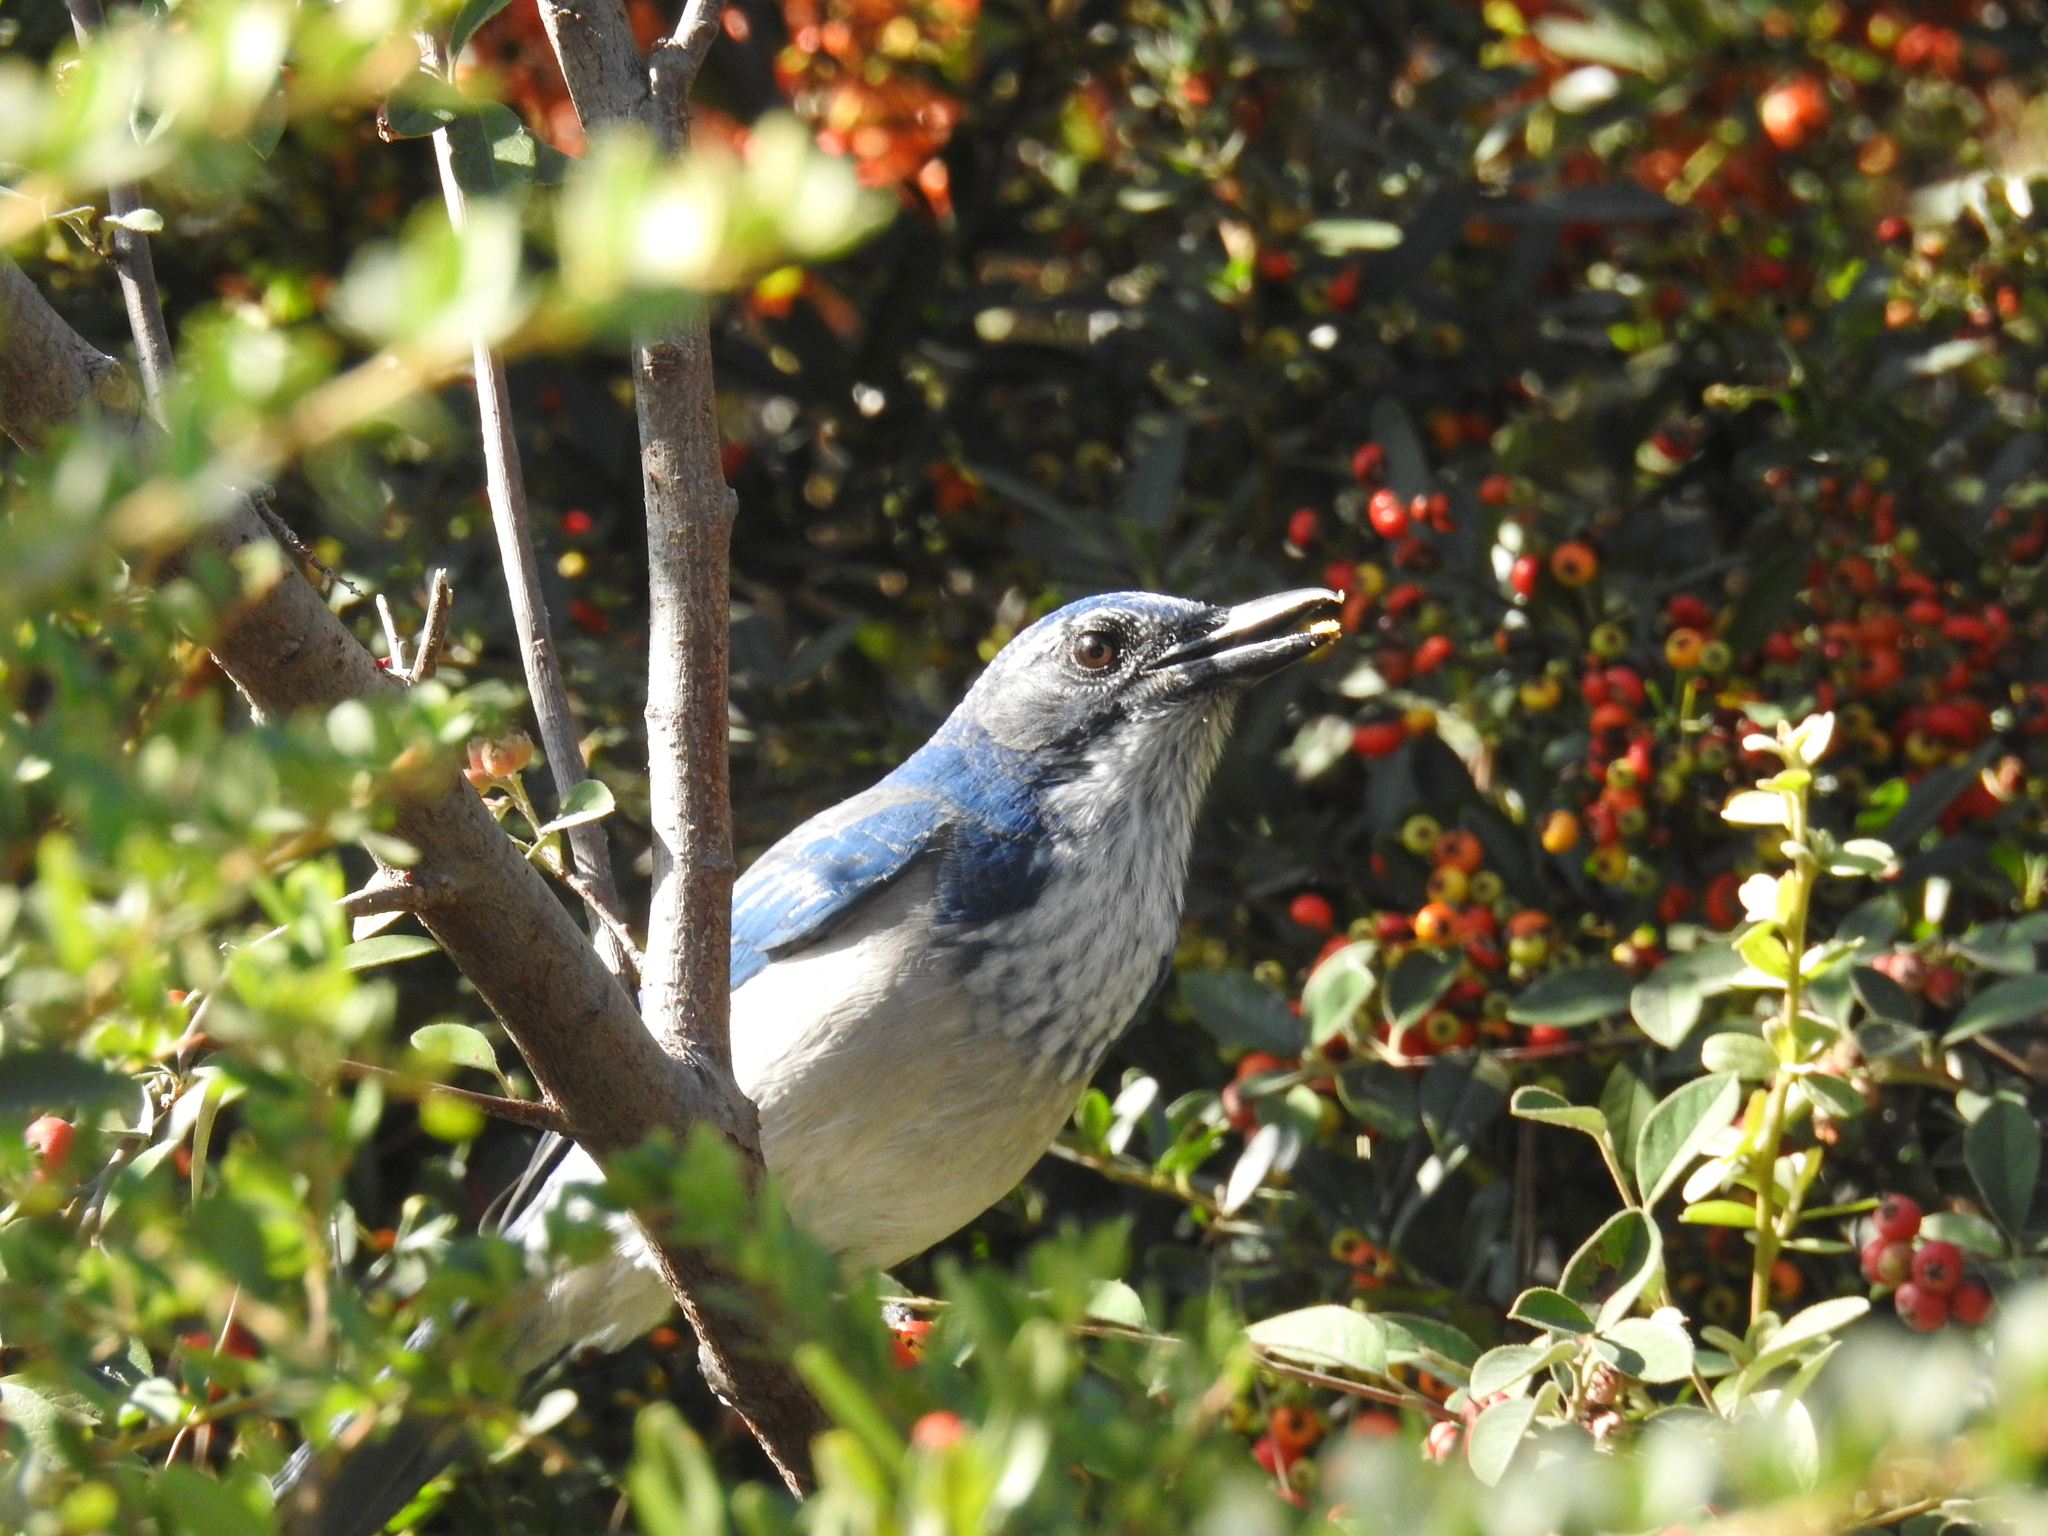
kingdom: Animalia
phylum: Chordata
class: Aves
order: Passeriformes
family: Corvidae
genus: Aphelocoma
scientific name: Aphelocoma californica
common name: California scrub-jay
